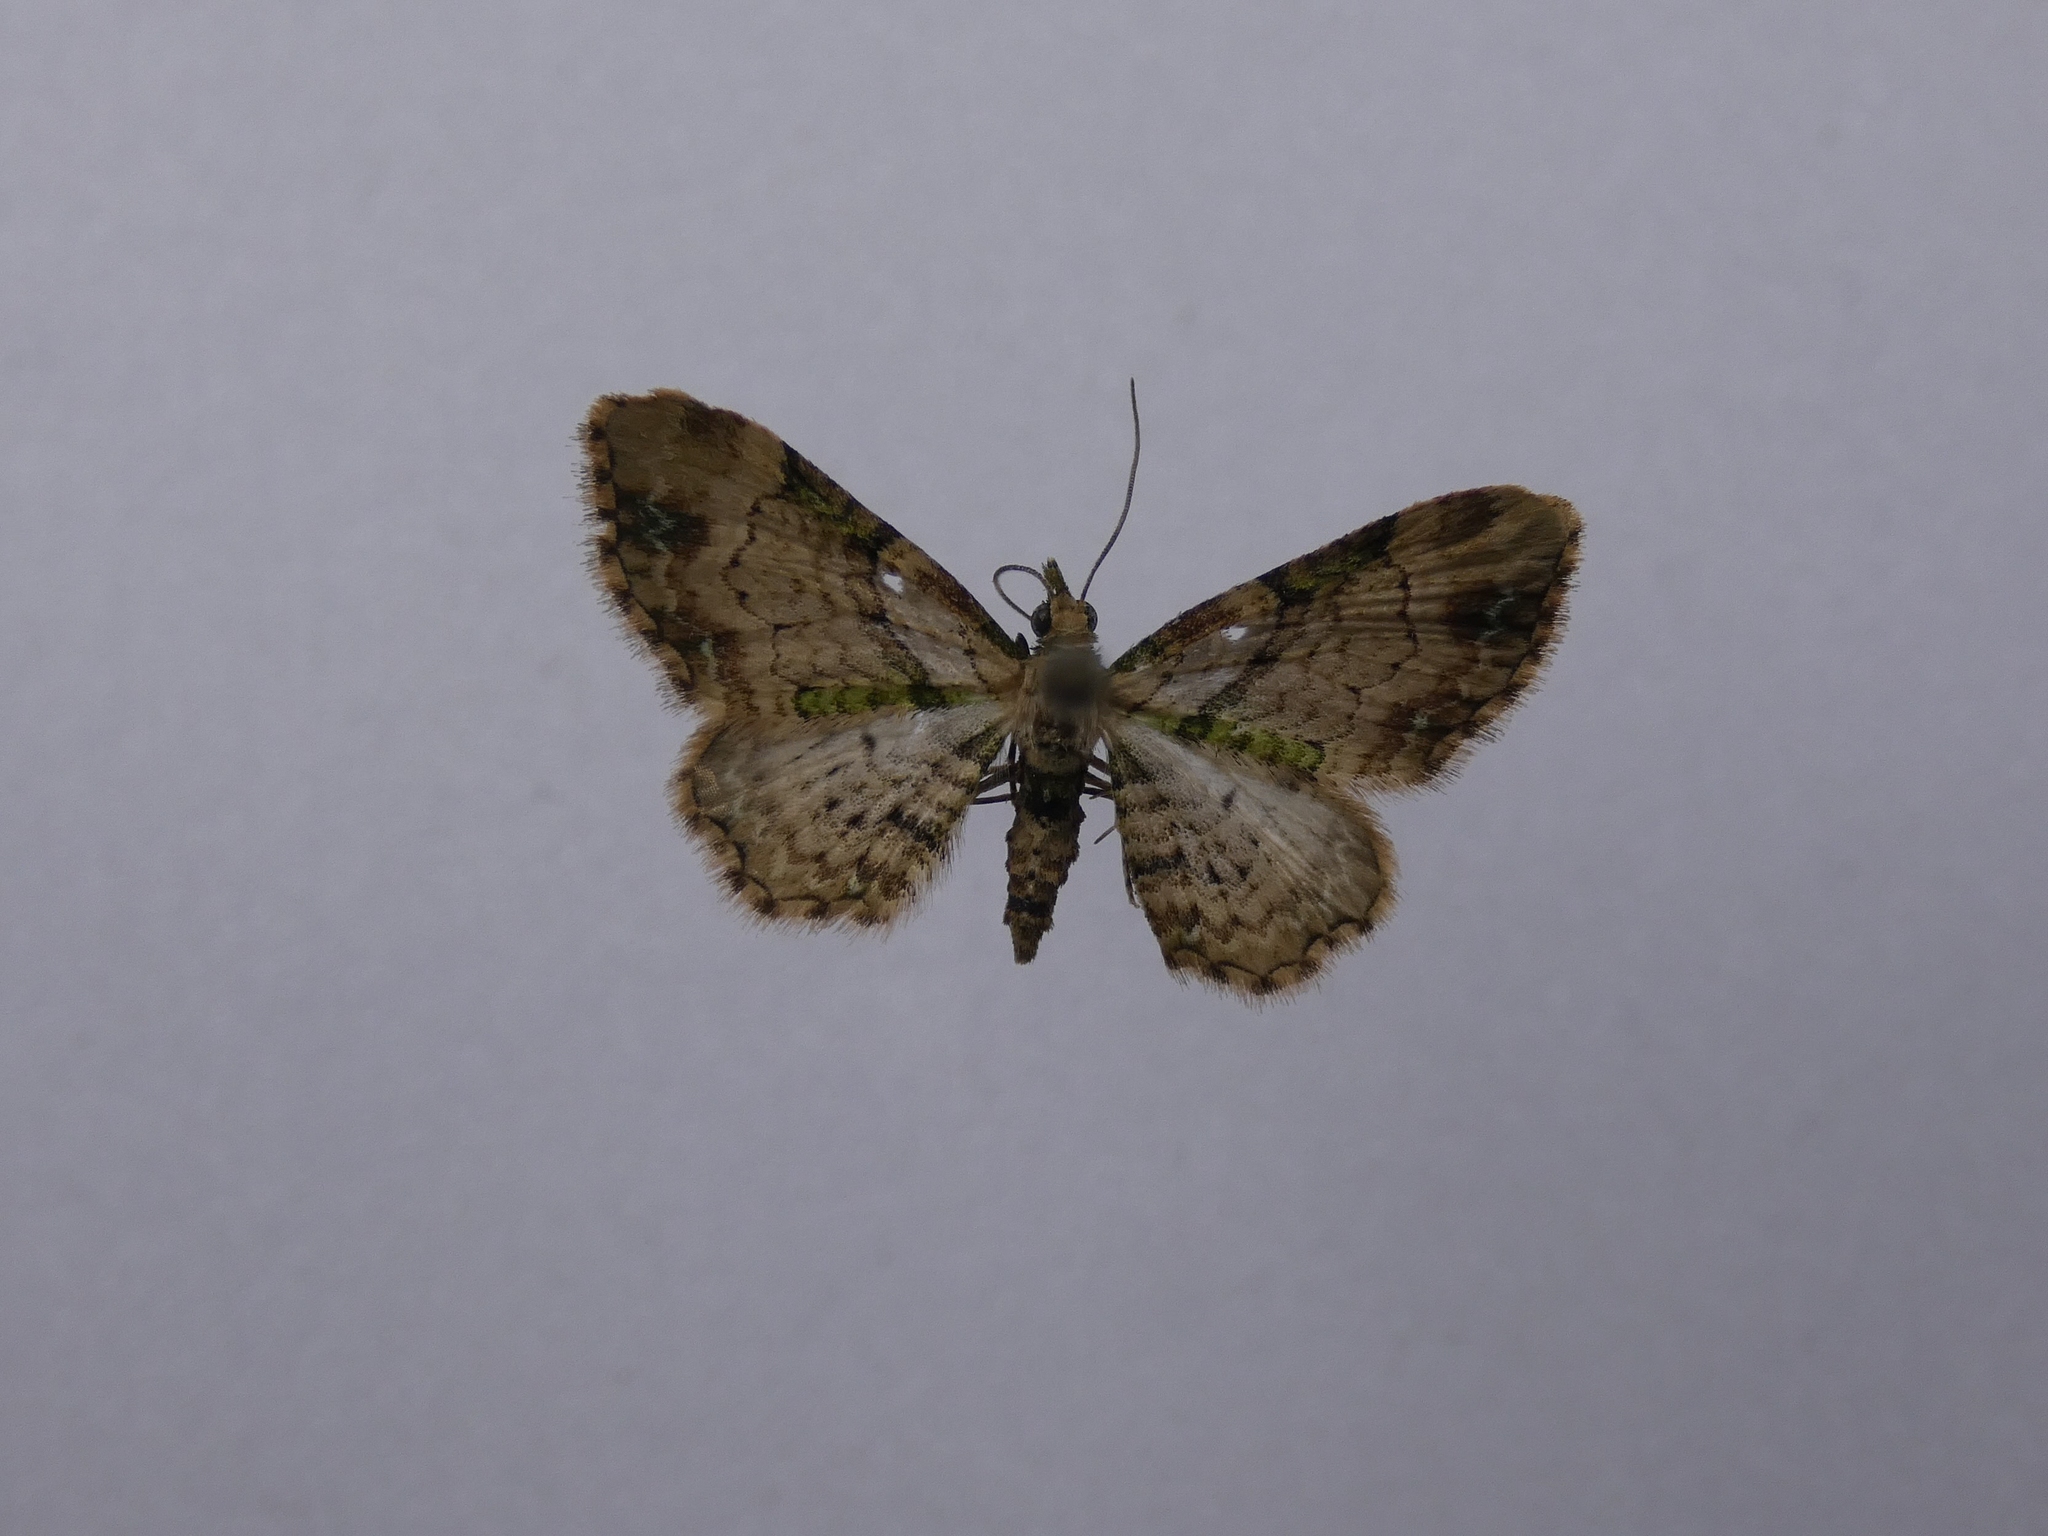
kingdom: Animalia
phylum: Arthropoda
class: Insecta
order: Lepidoptera
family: Geometridae
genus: Chloroclystis
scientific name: Chloroclystis
